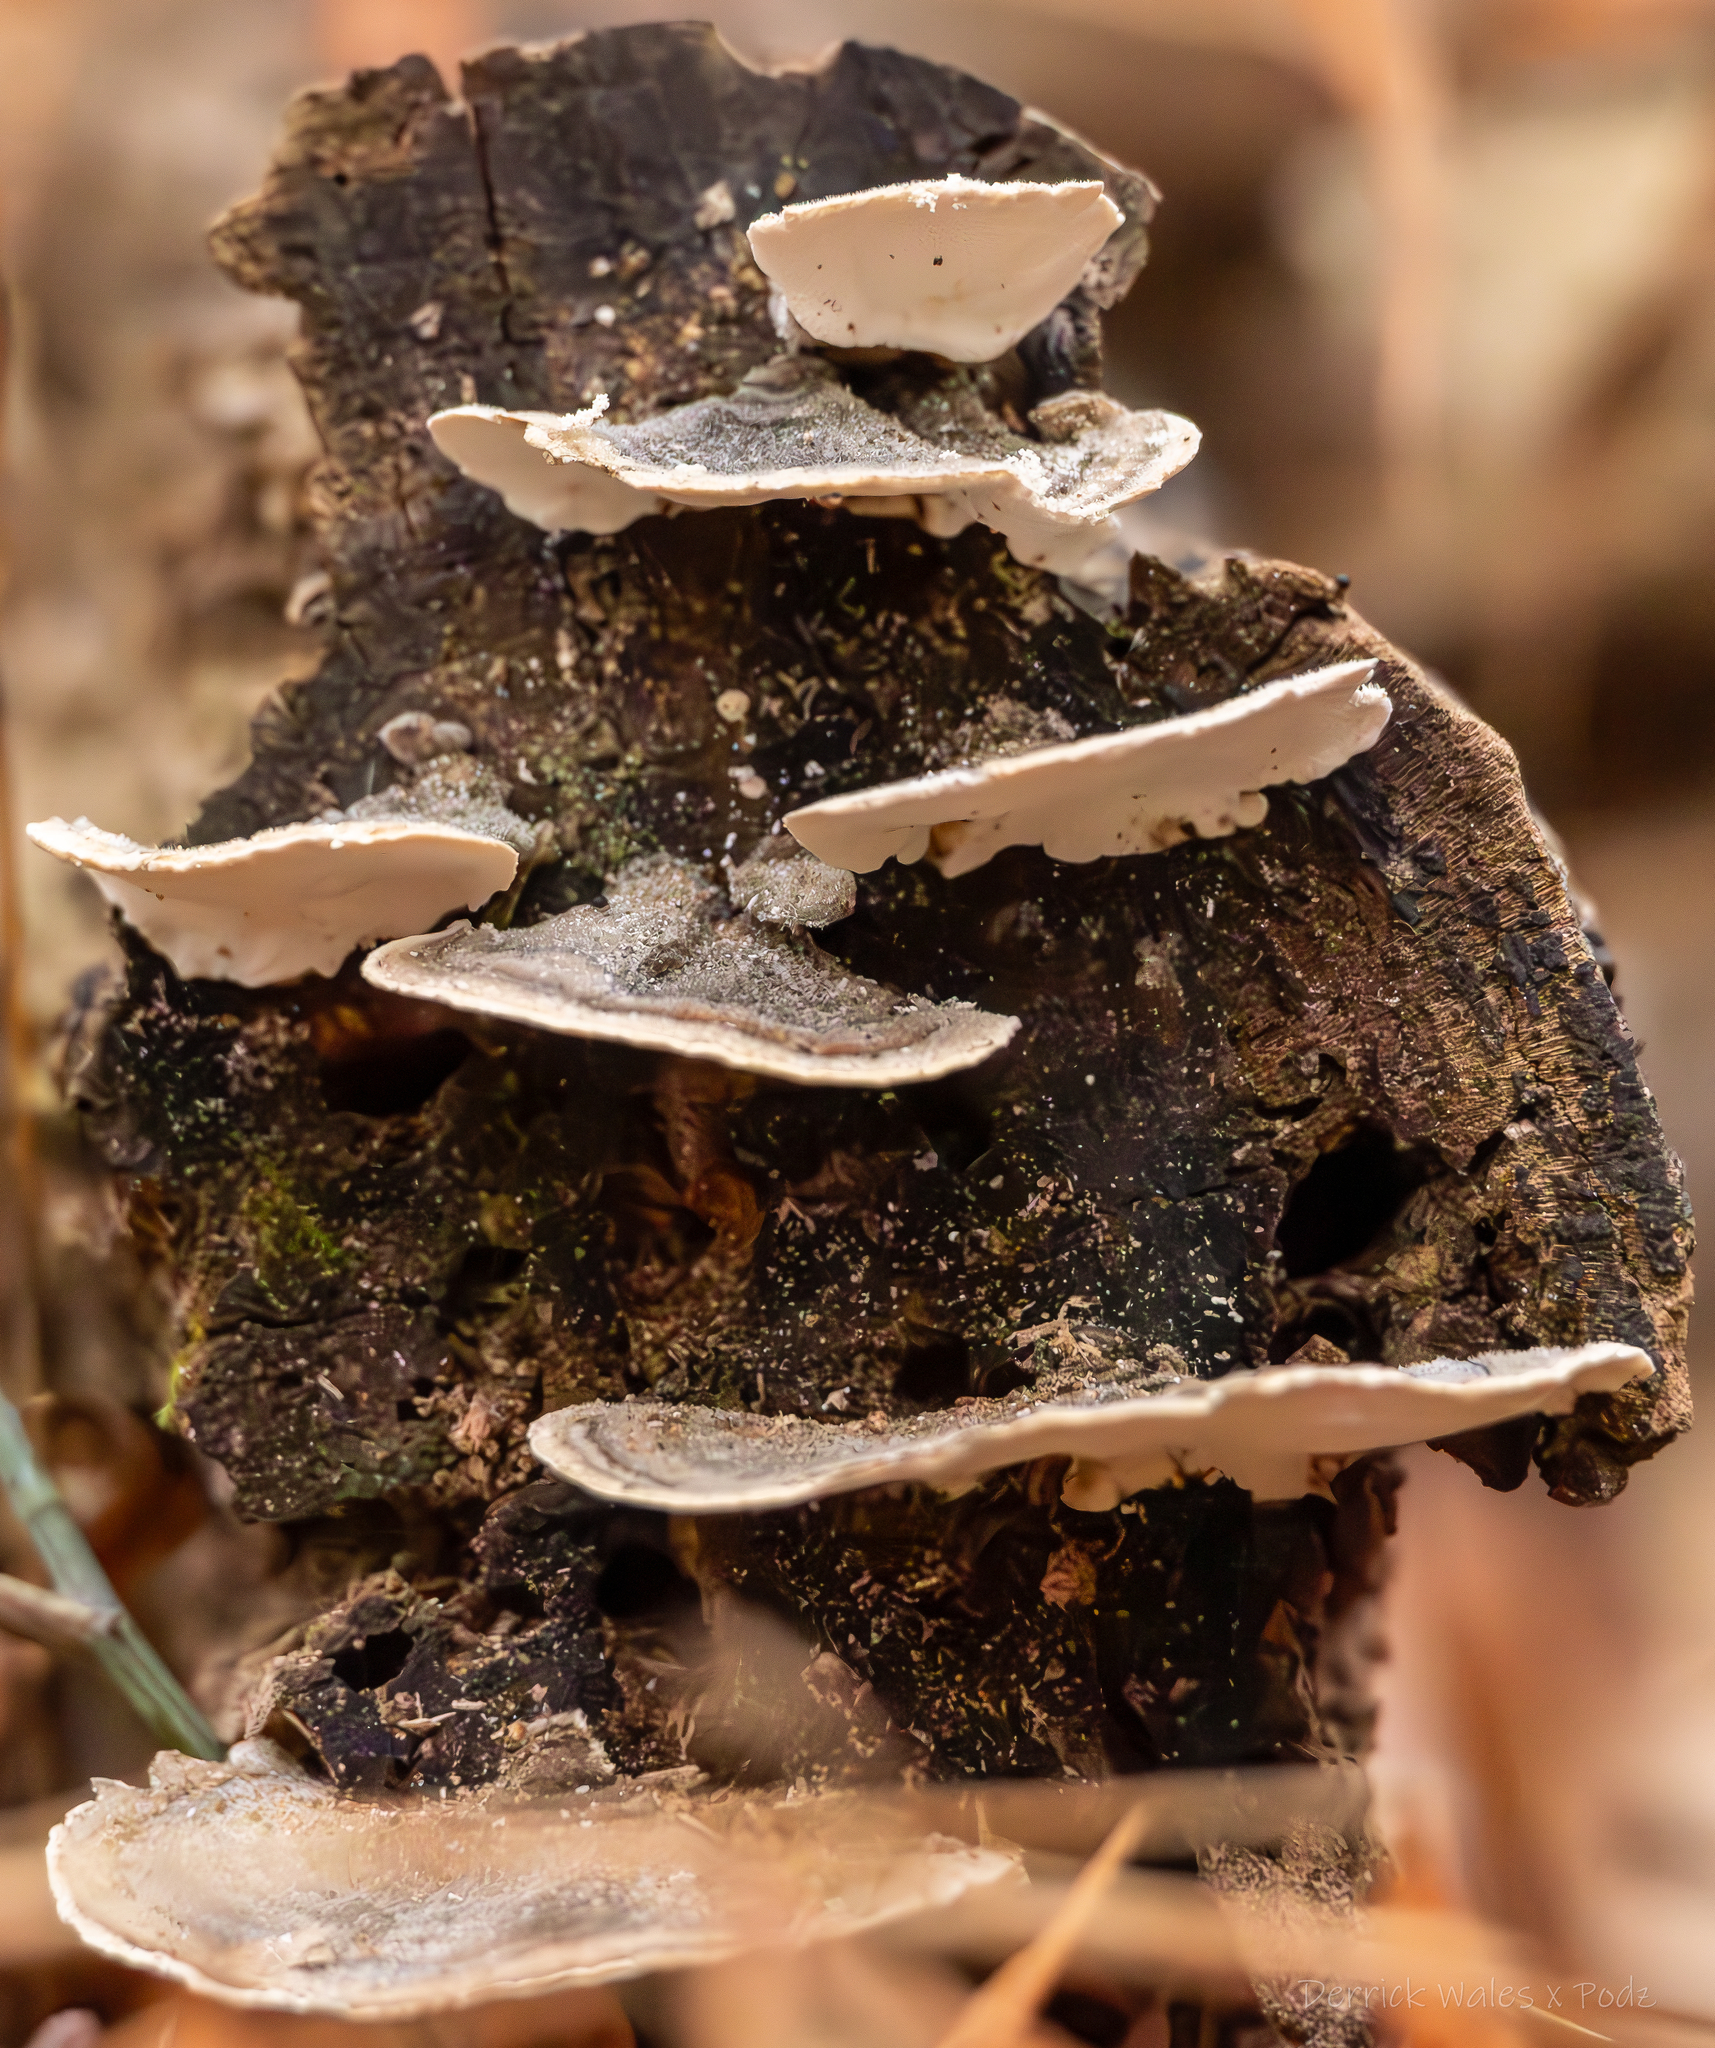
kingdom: Fungi
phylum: Basidiomycota
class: Agaricomycetes
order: Polyporales
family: Polyporaceae
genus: Trametes
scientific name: Trametes versicolor
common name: Turkeytail
